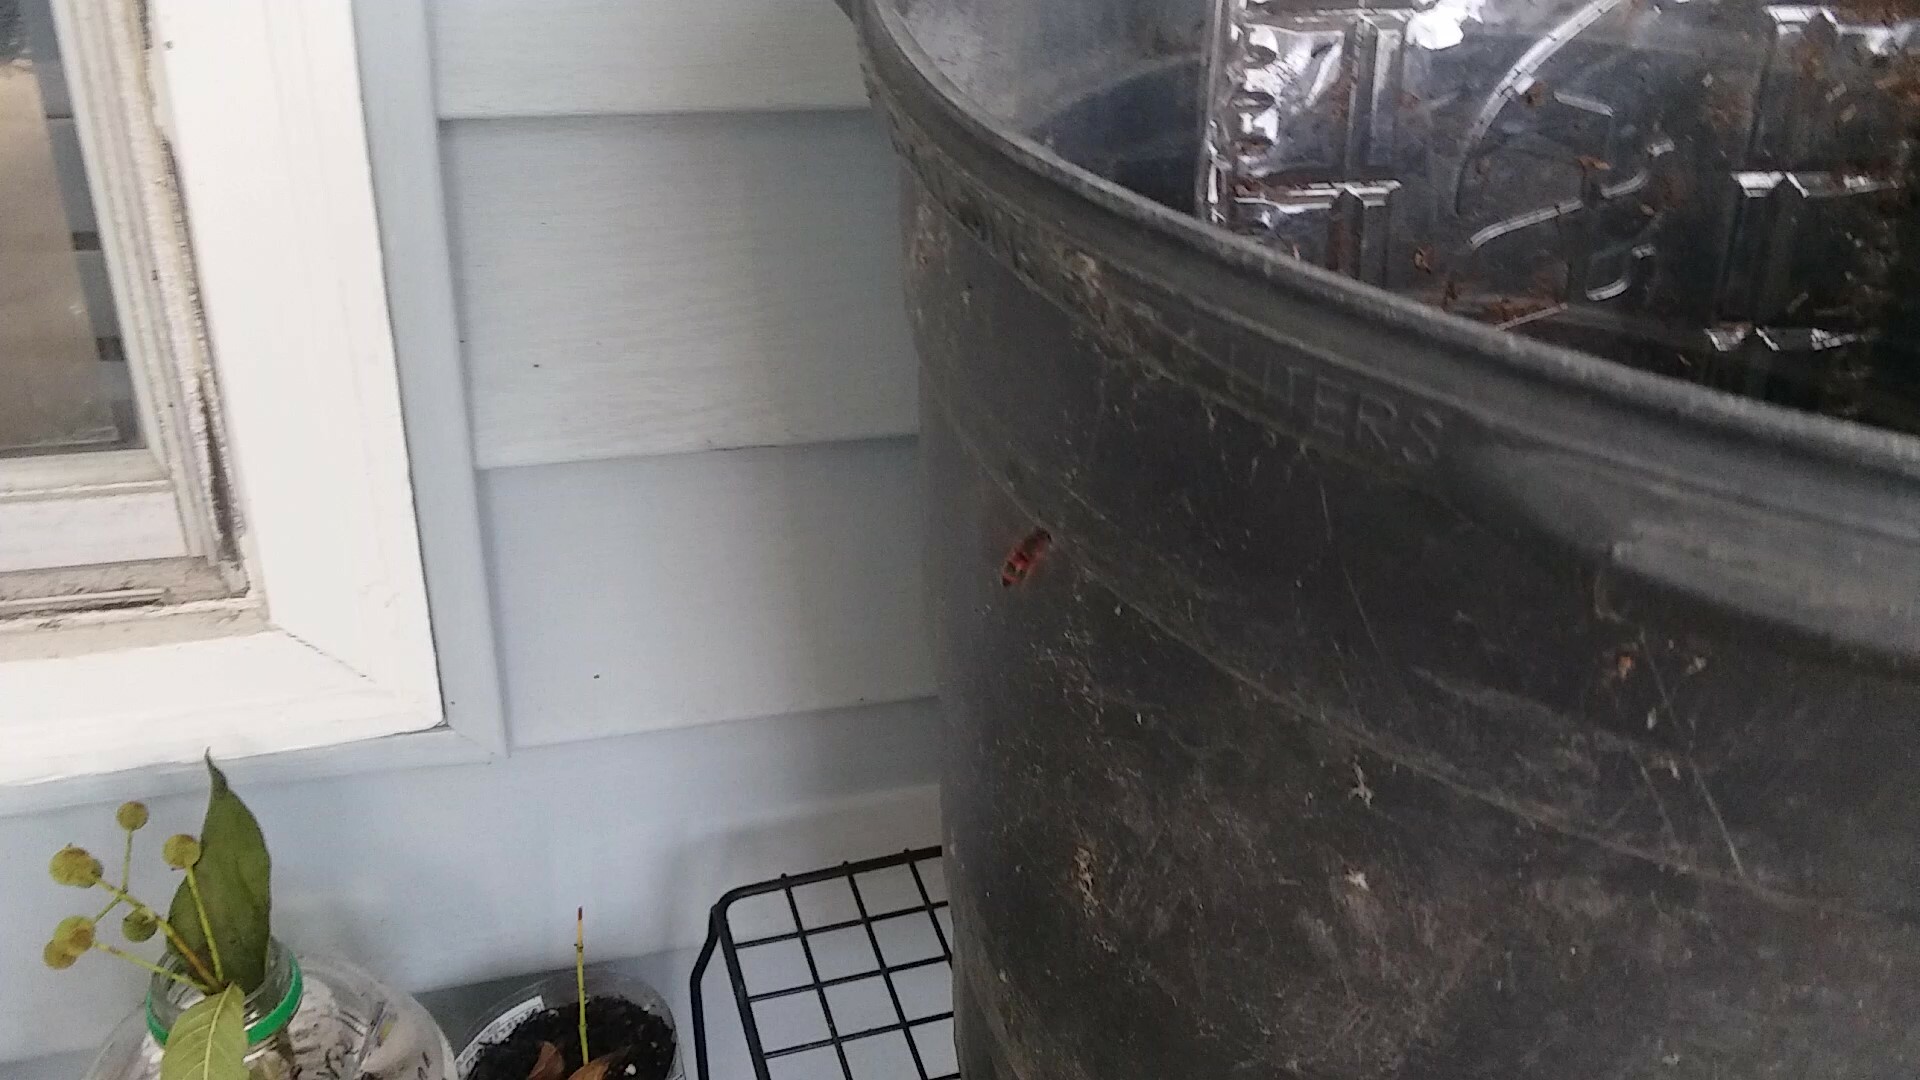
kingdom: Animalia
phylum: Arthropoda
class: Insecta
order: Hymenoptera
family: Eumenidae
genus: Pachodynerus
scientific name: Pachodynerus erynnis
